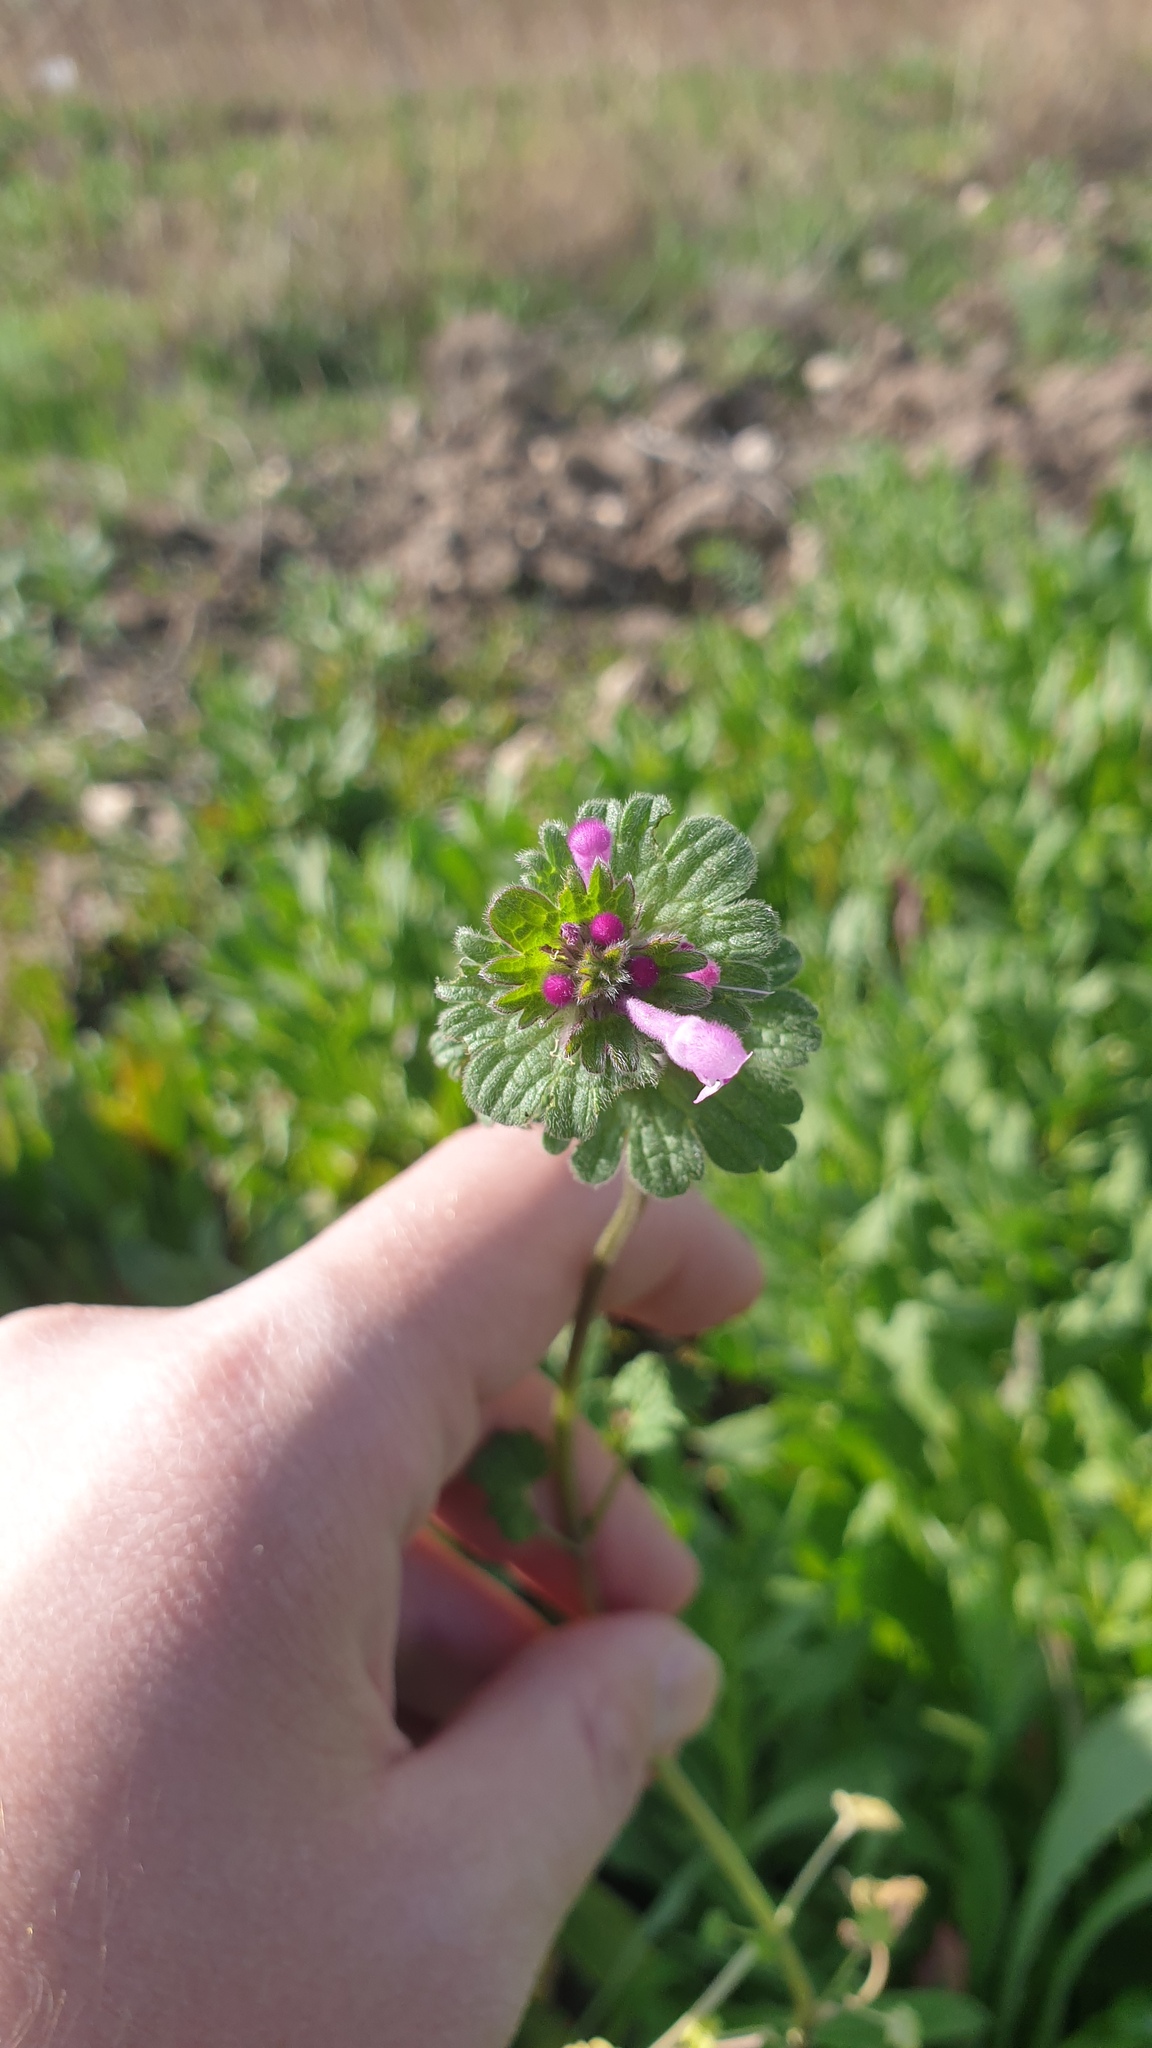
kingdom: Plantae
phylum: Tracheophyta
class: Magnoliopsida
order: Lamiales
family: Lamiaceae
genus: Lamium
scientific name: Lamium amplexicaule
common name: Henbit dead-nettle
